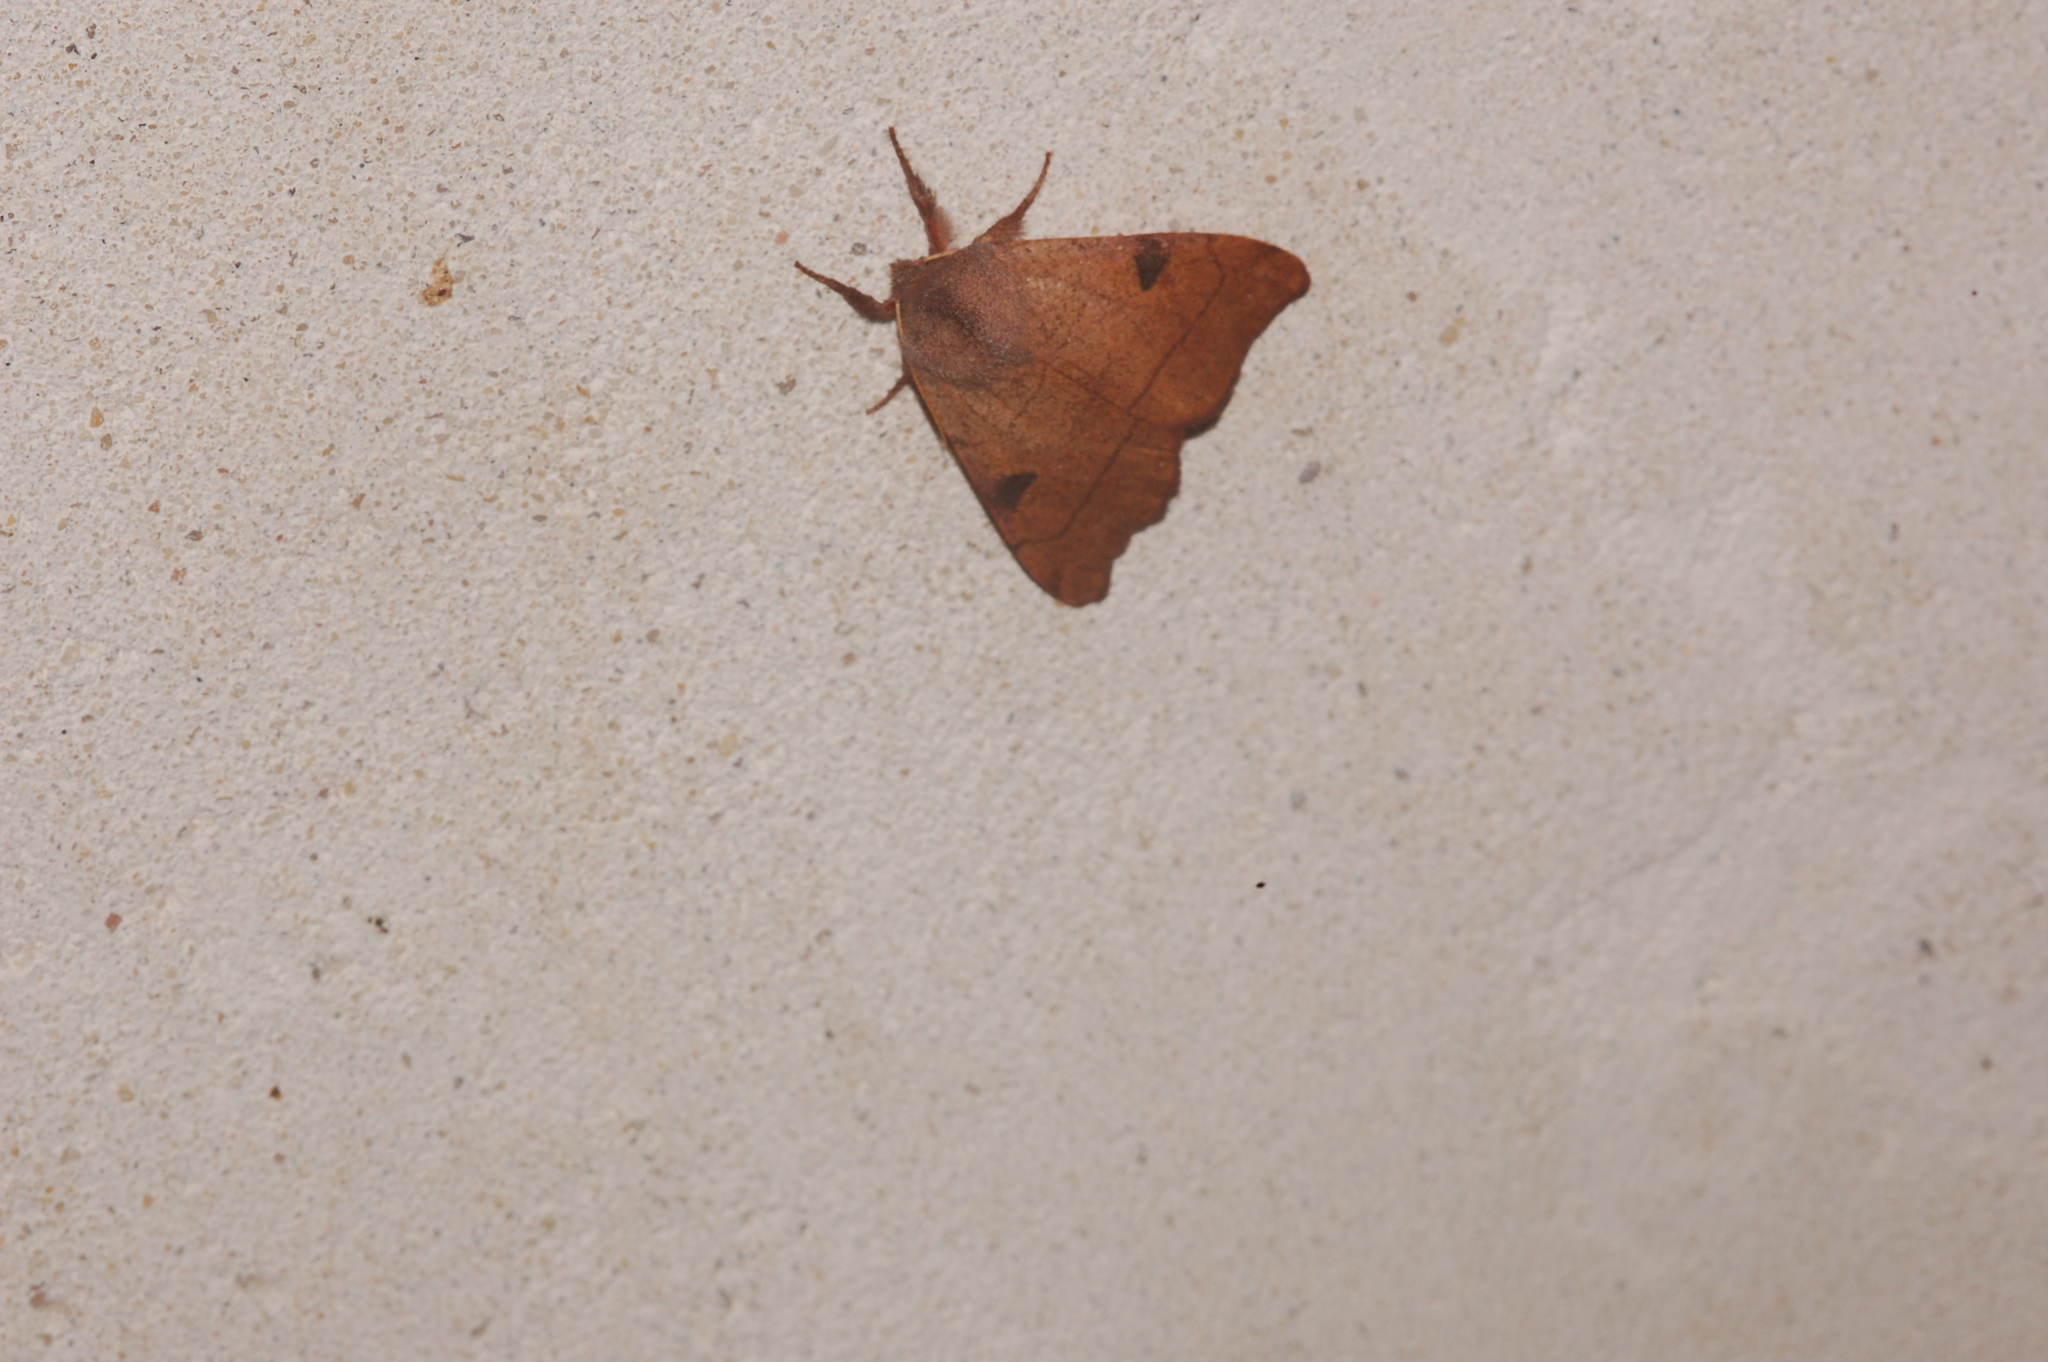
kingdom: Animalia
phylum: Arthropoda
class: Insecta
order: Lepidoptera
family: Noctuidae
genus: Choephora
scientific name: Choephora fungorum
